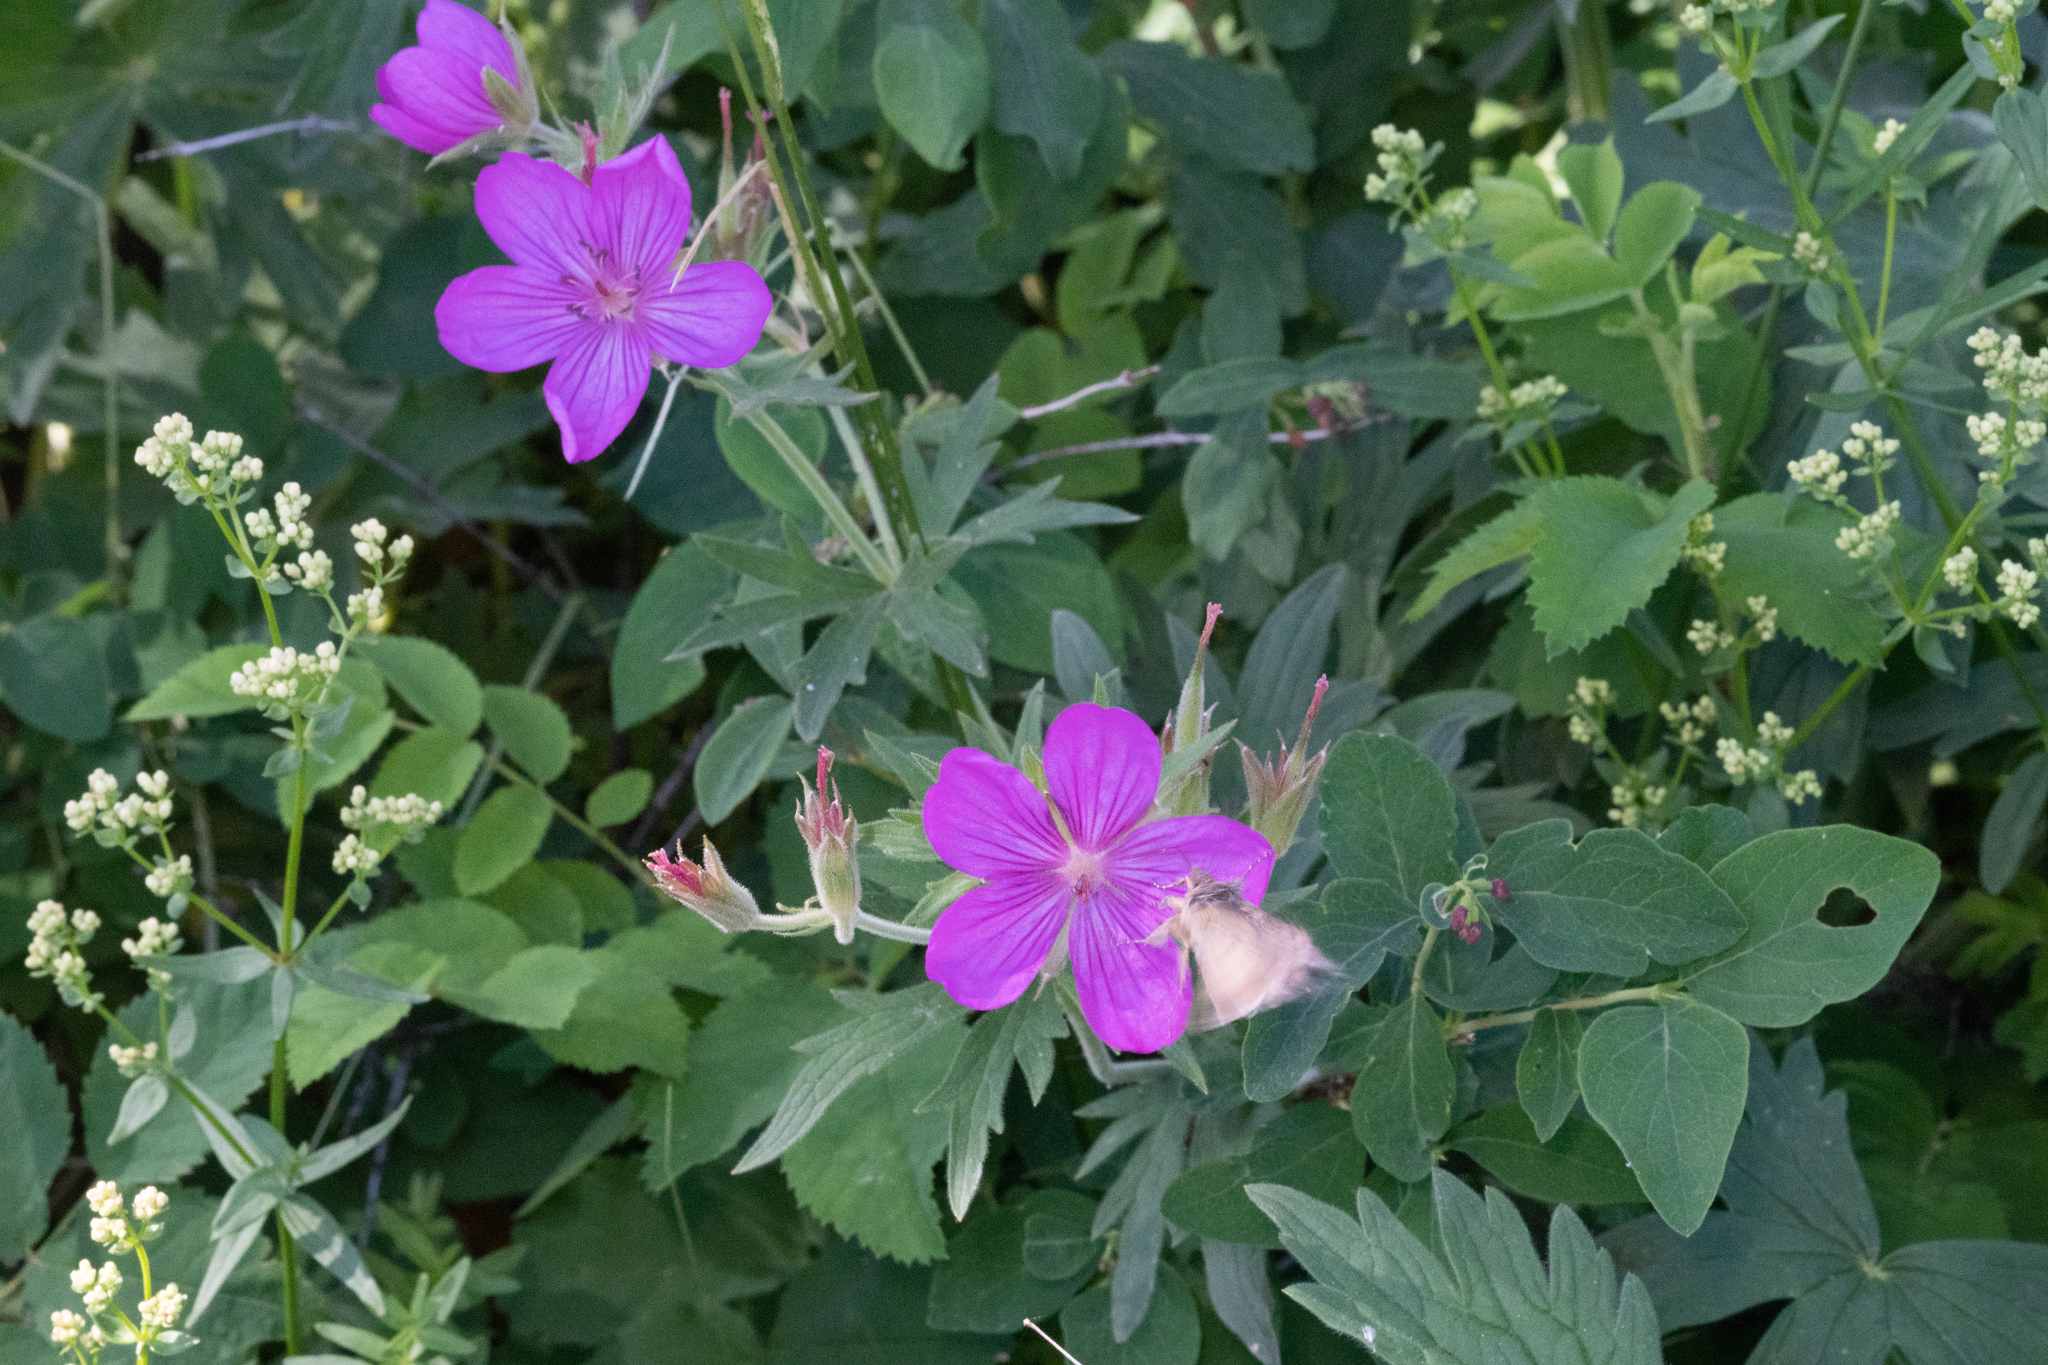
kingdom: Plantae
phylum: Tracheophyta
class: Magnoliopsida
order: Geraniales
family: Geraniaceae
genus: Geranium
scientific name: Geranium viscosissimum
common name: Purple geranium
